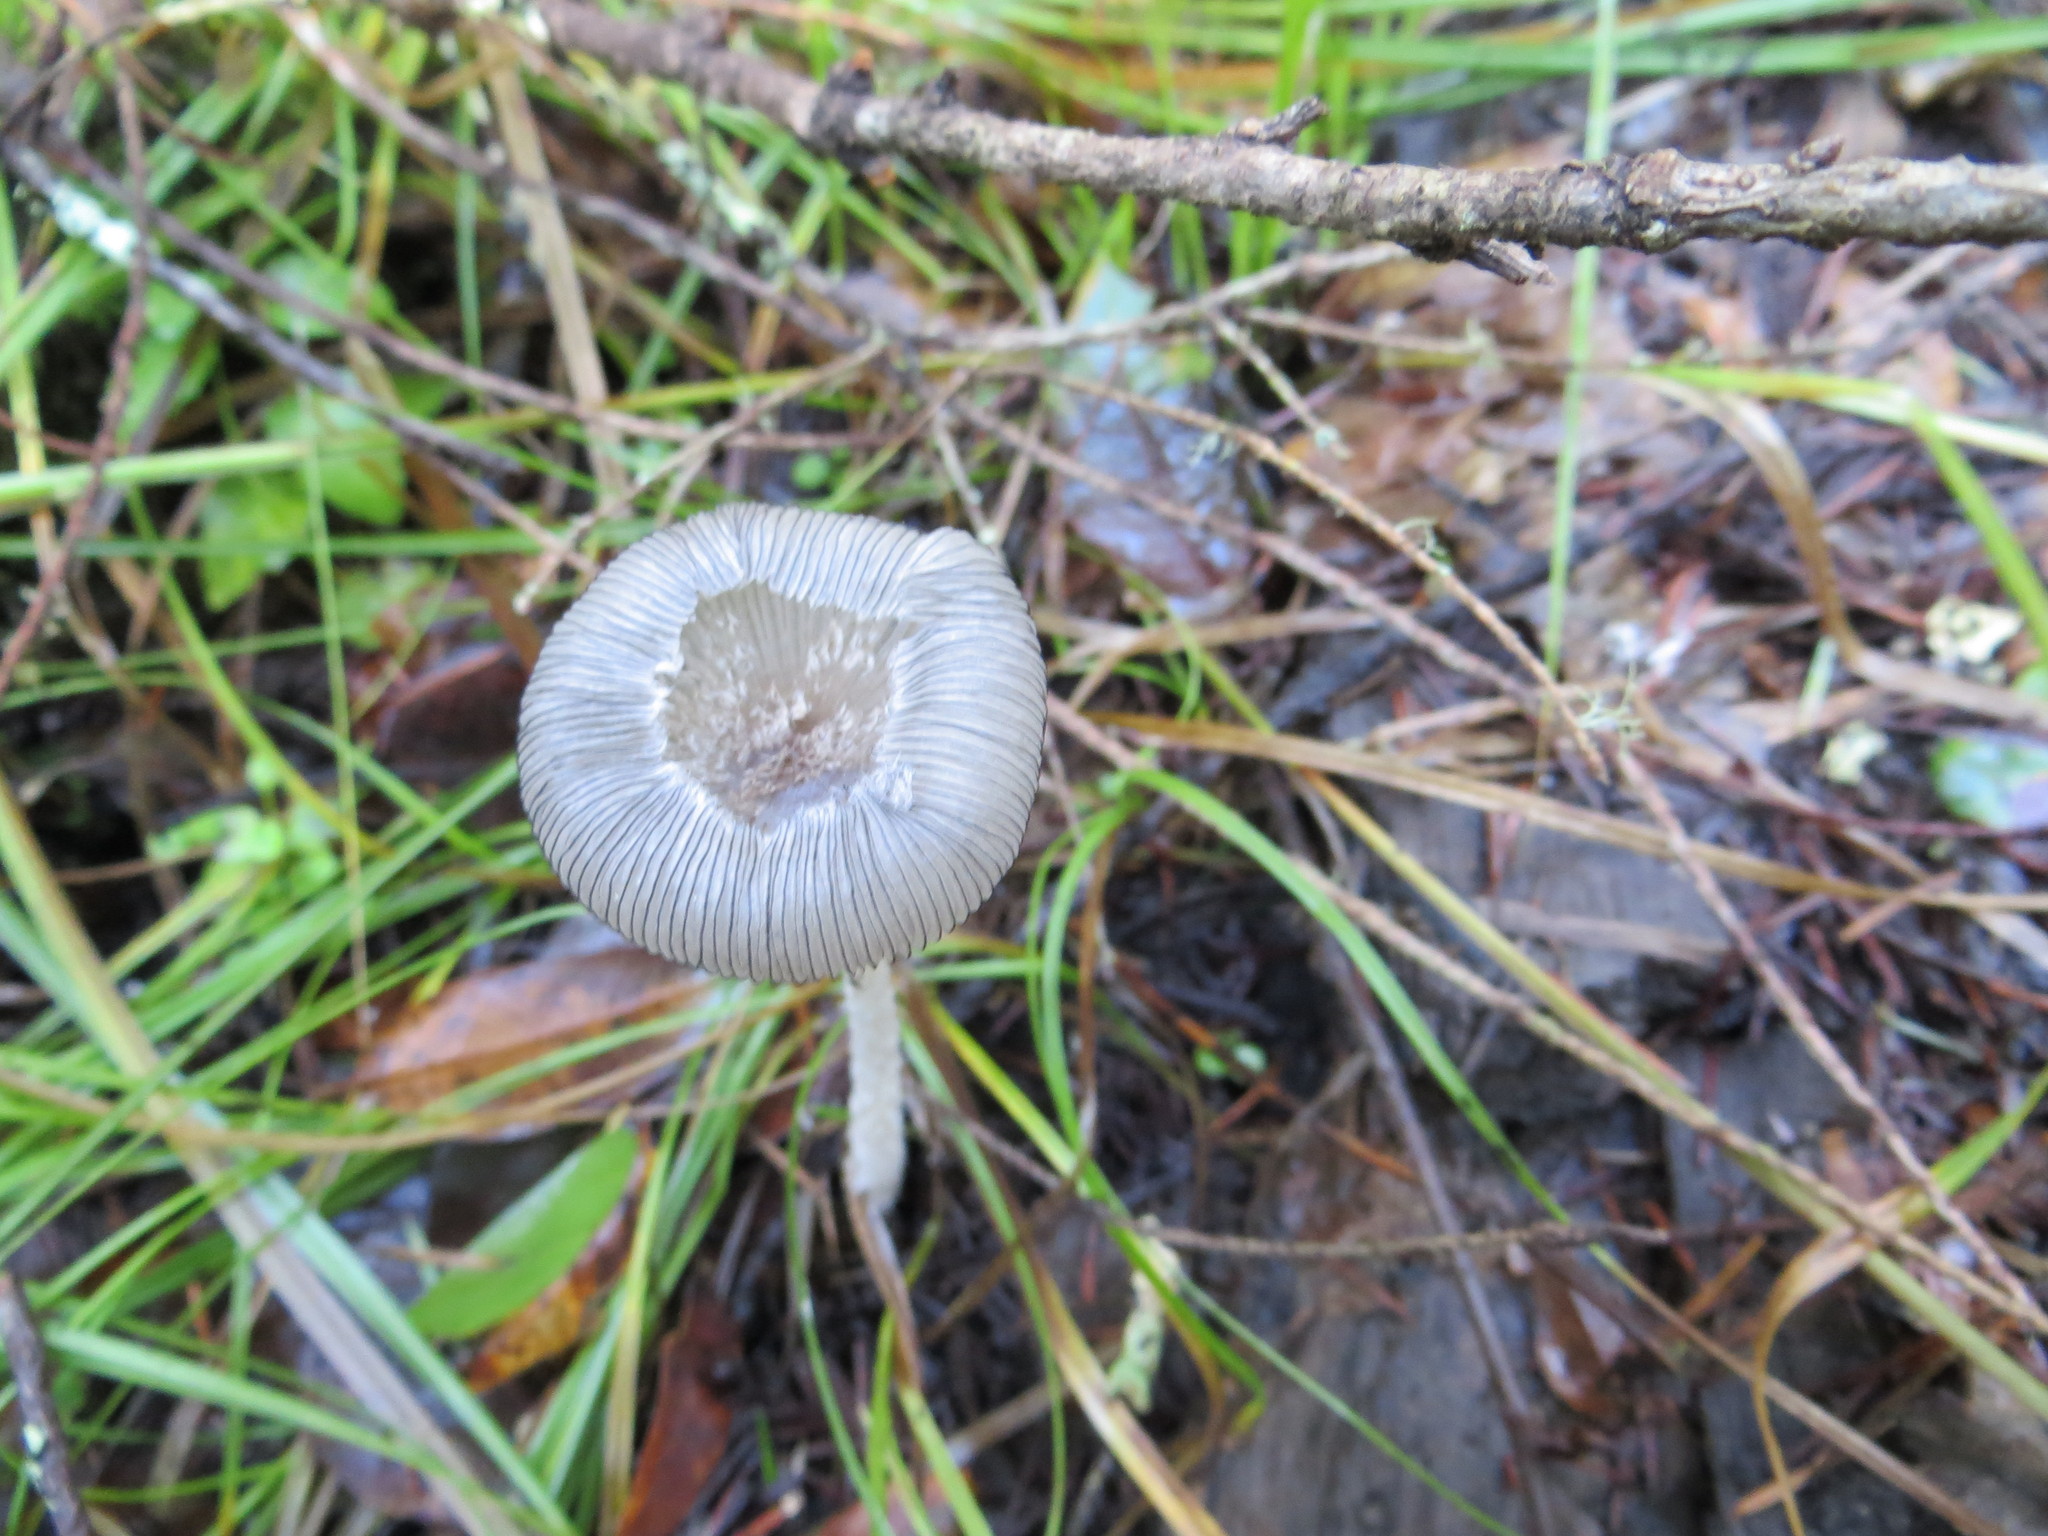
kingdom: Fungi
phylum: Basidiomycota
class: Agaricomycetes
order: Agaricales
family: Psathyrellaceae
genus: Coprinopsis
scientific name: Coprinopsis lagopus
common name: Hare'sfoot inkcap
